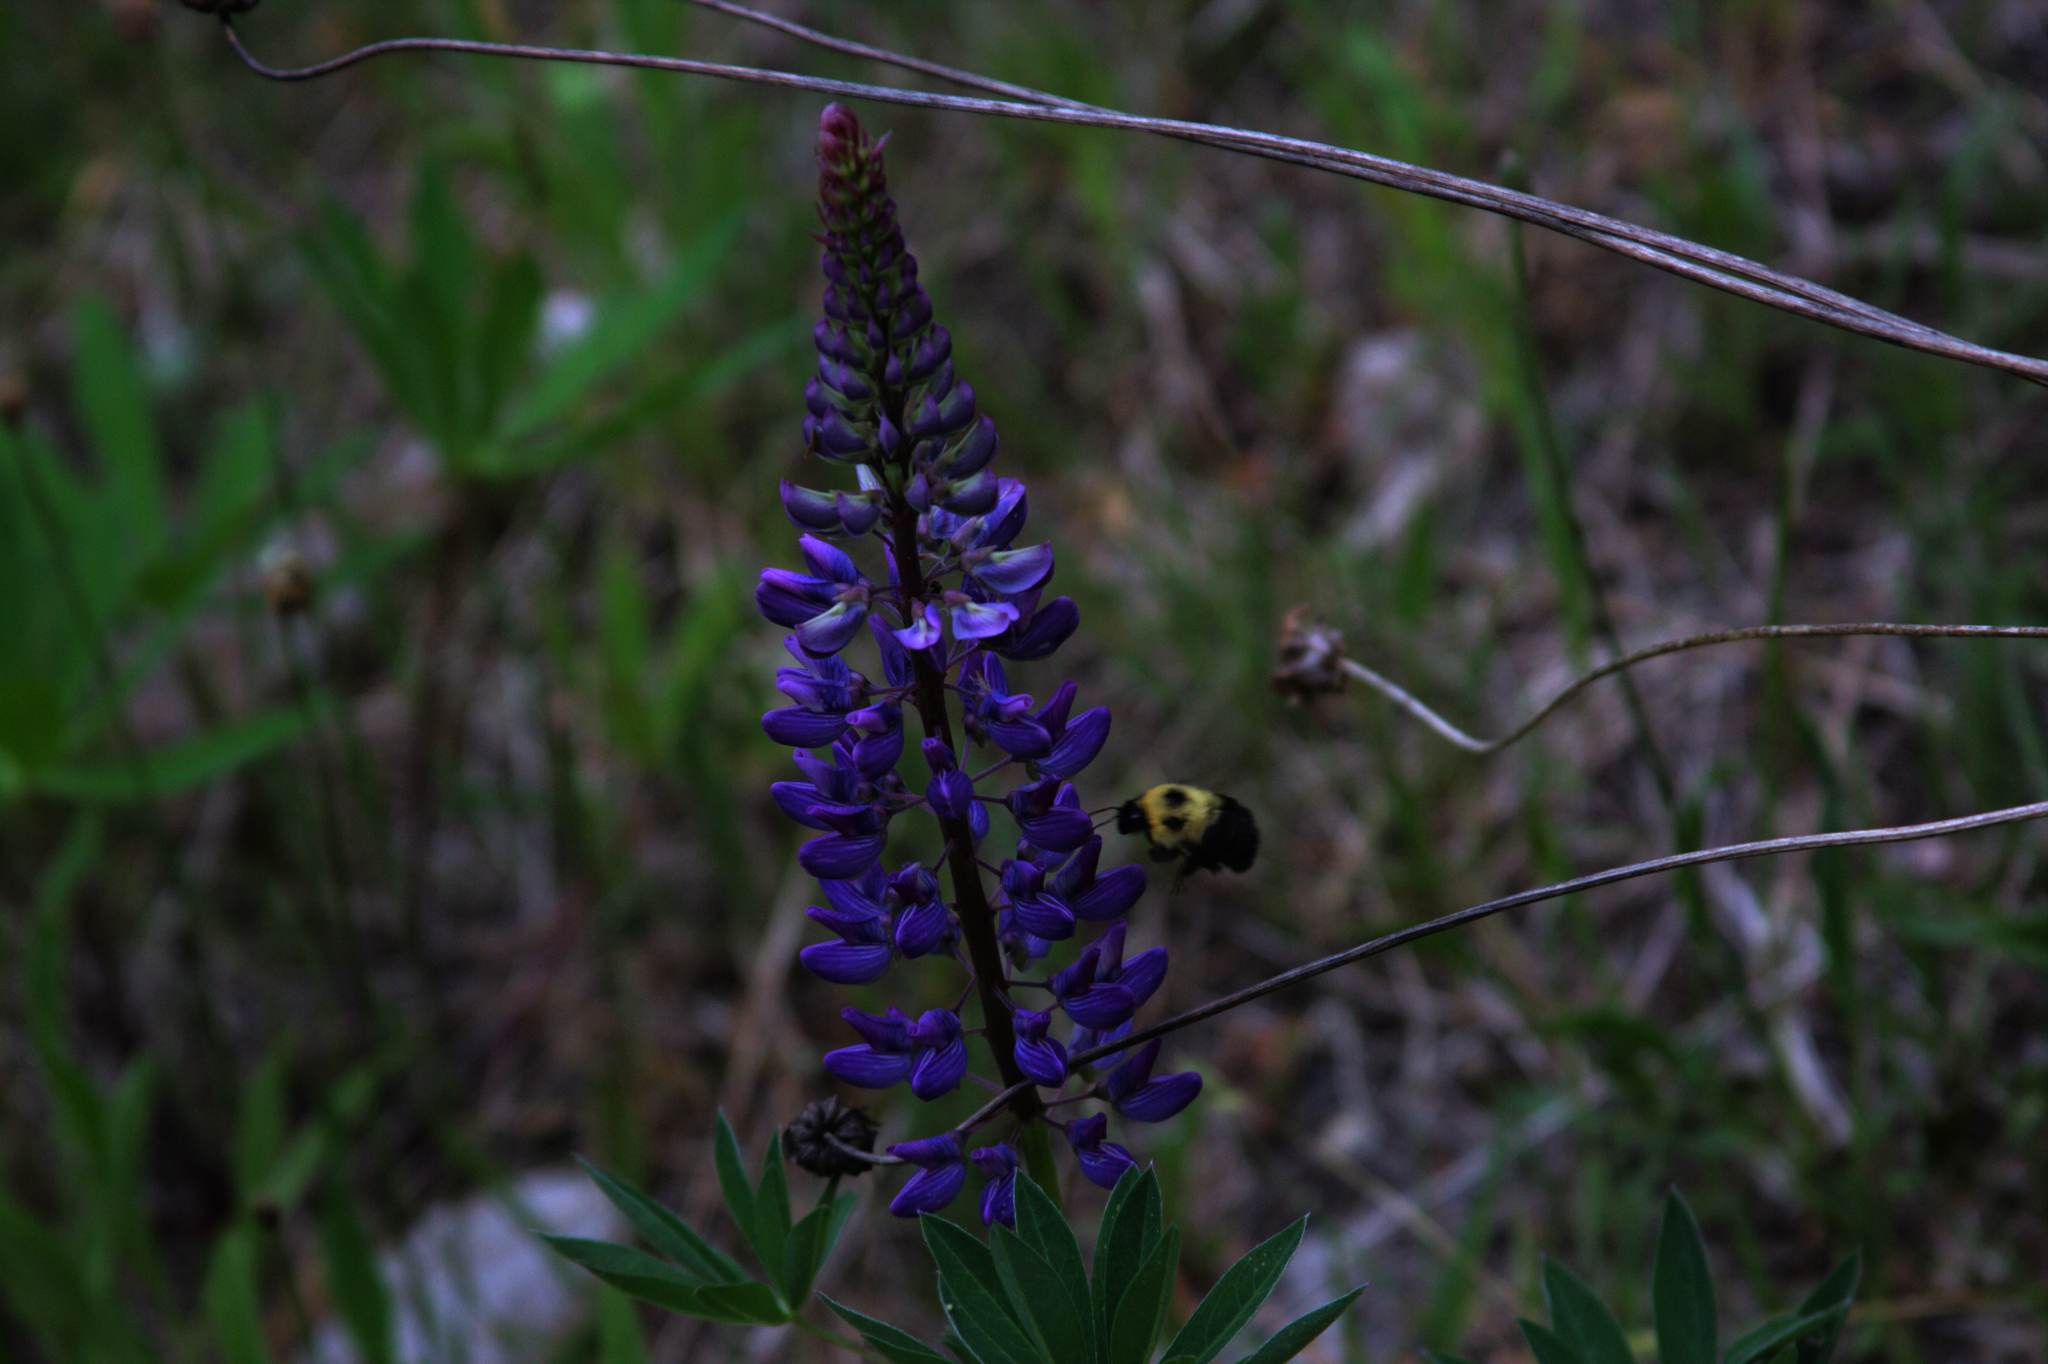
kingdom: Animalia
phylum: Arthropoda
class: Insecta
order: Hymenoptera
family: Apidae
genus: Bombus
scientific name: Bombus bimaculatus
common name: Two-spotted bumble bee
